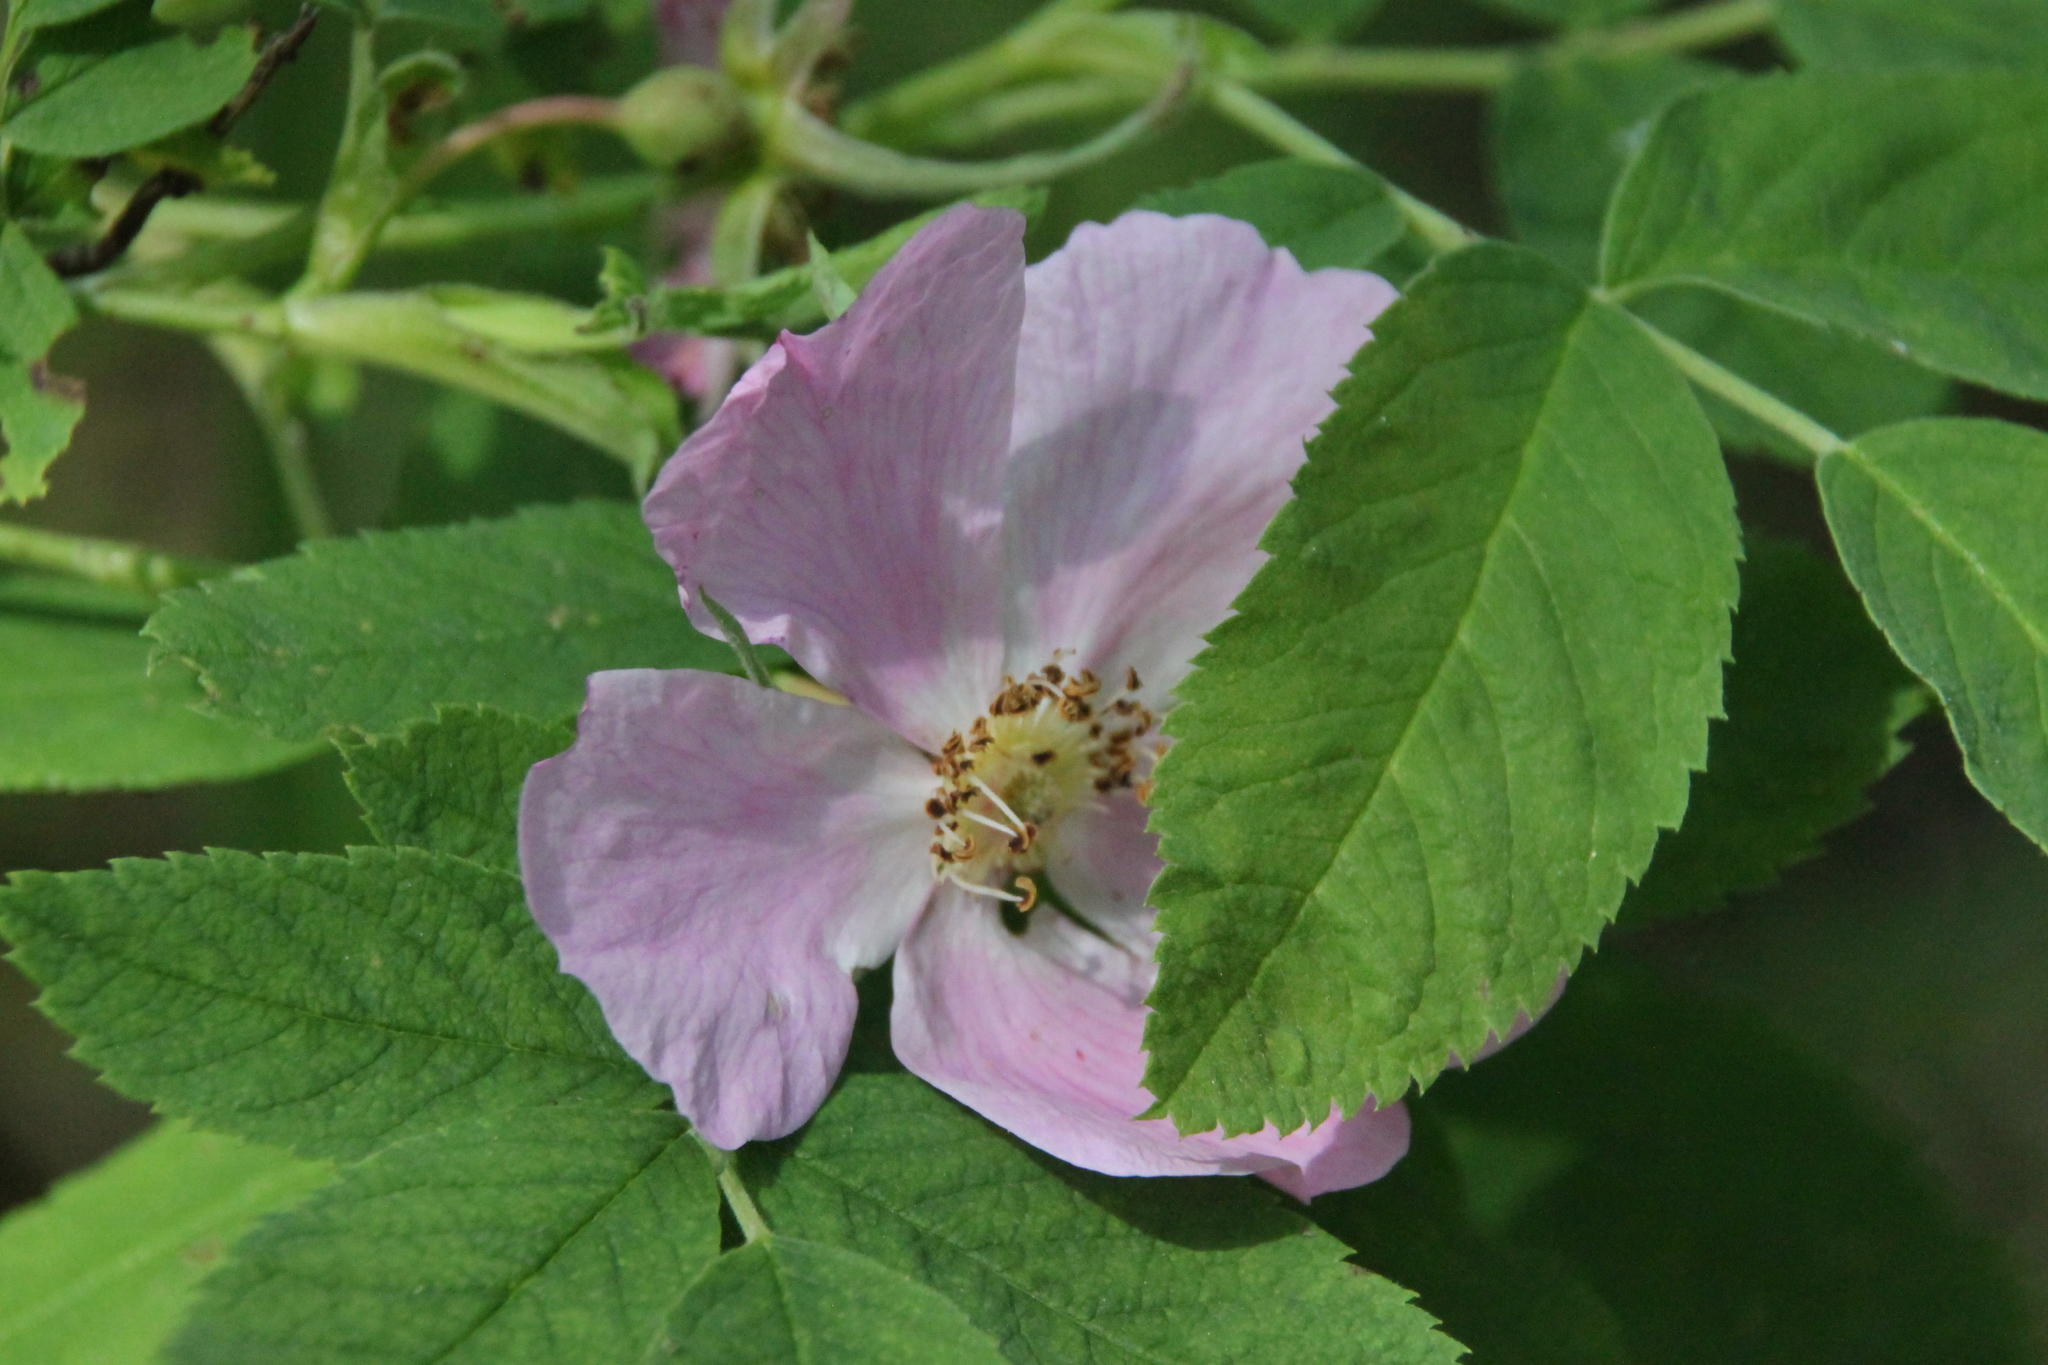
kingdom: Plantae
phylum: Tracheophyta
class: Magnoliopsida
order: Rosales
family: Rosaceae
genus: Rosa
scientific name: Rosa
